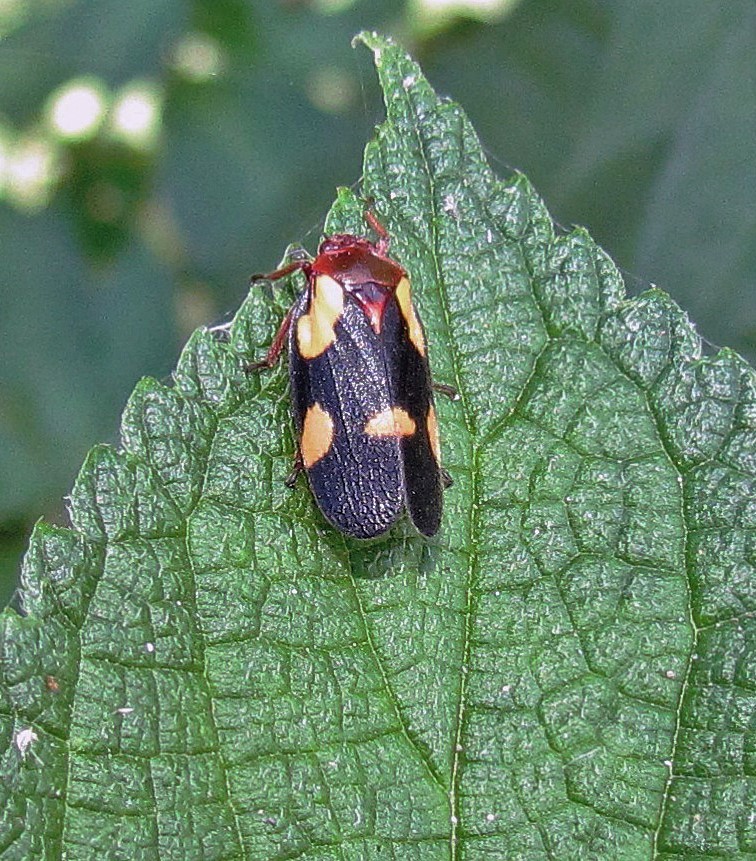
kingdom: Animalia
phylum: Arthropoda
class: Insecta
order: Hemiptera
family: Cercopidae
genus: Sphenorhina
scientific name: Sphenorhina limbata
